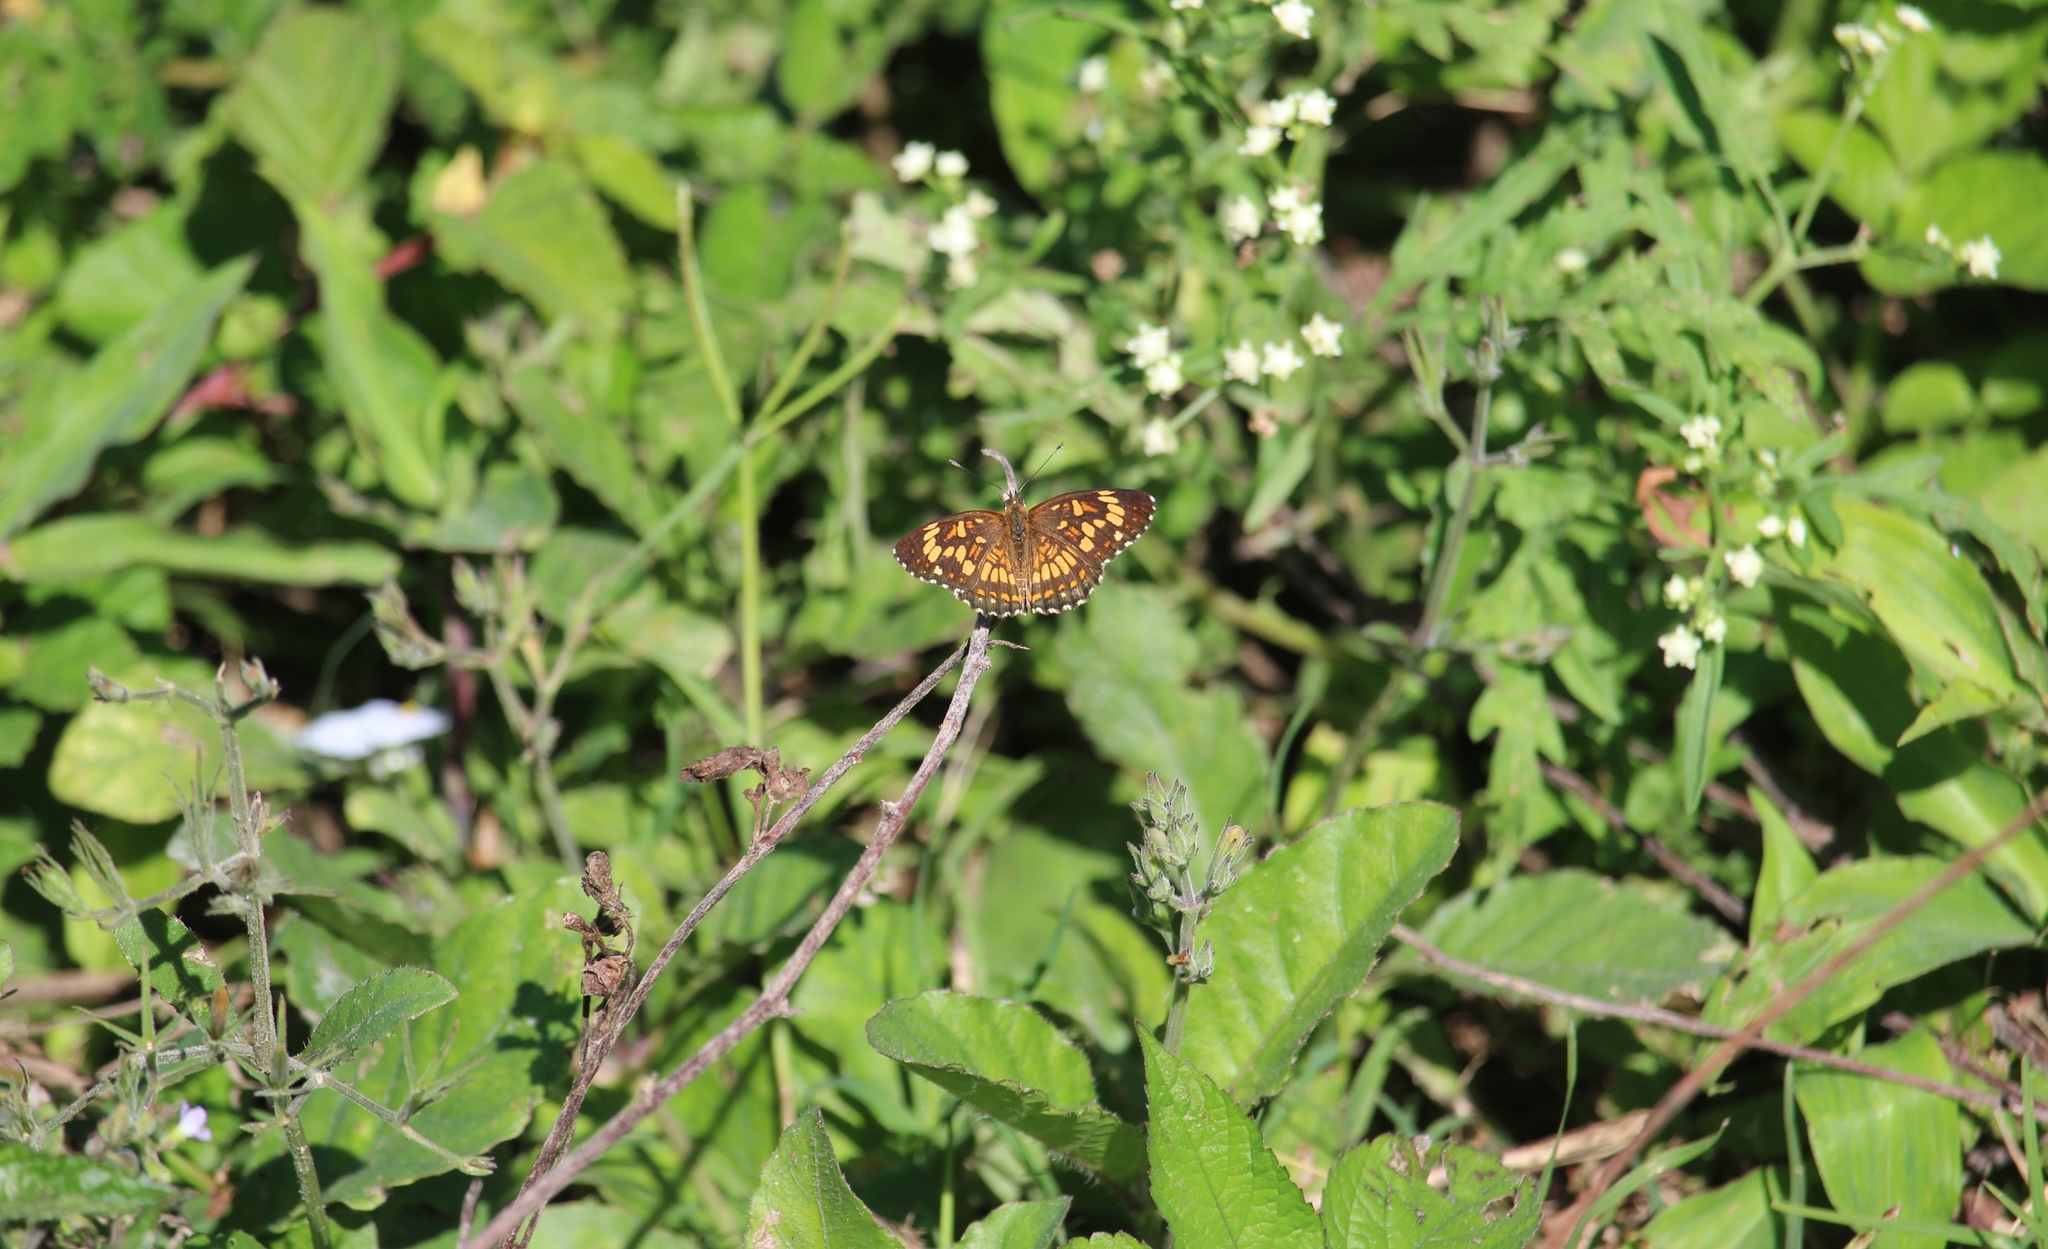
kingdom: Animalia
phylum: Arthropoda
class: Insecta
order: Lepidoptera
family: Nymphalidae
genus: Thessalia
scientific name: Thessalia theona
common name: Nymphalid moth
